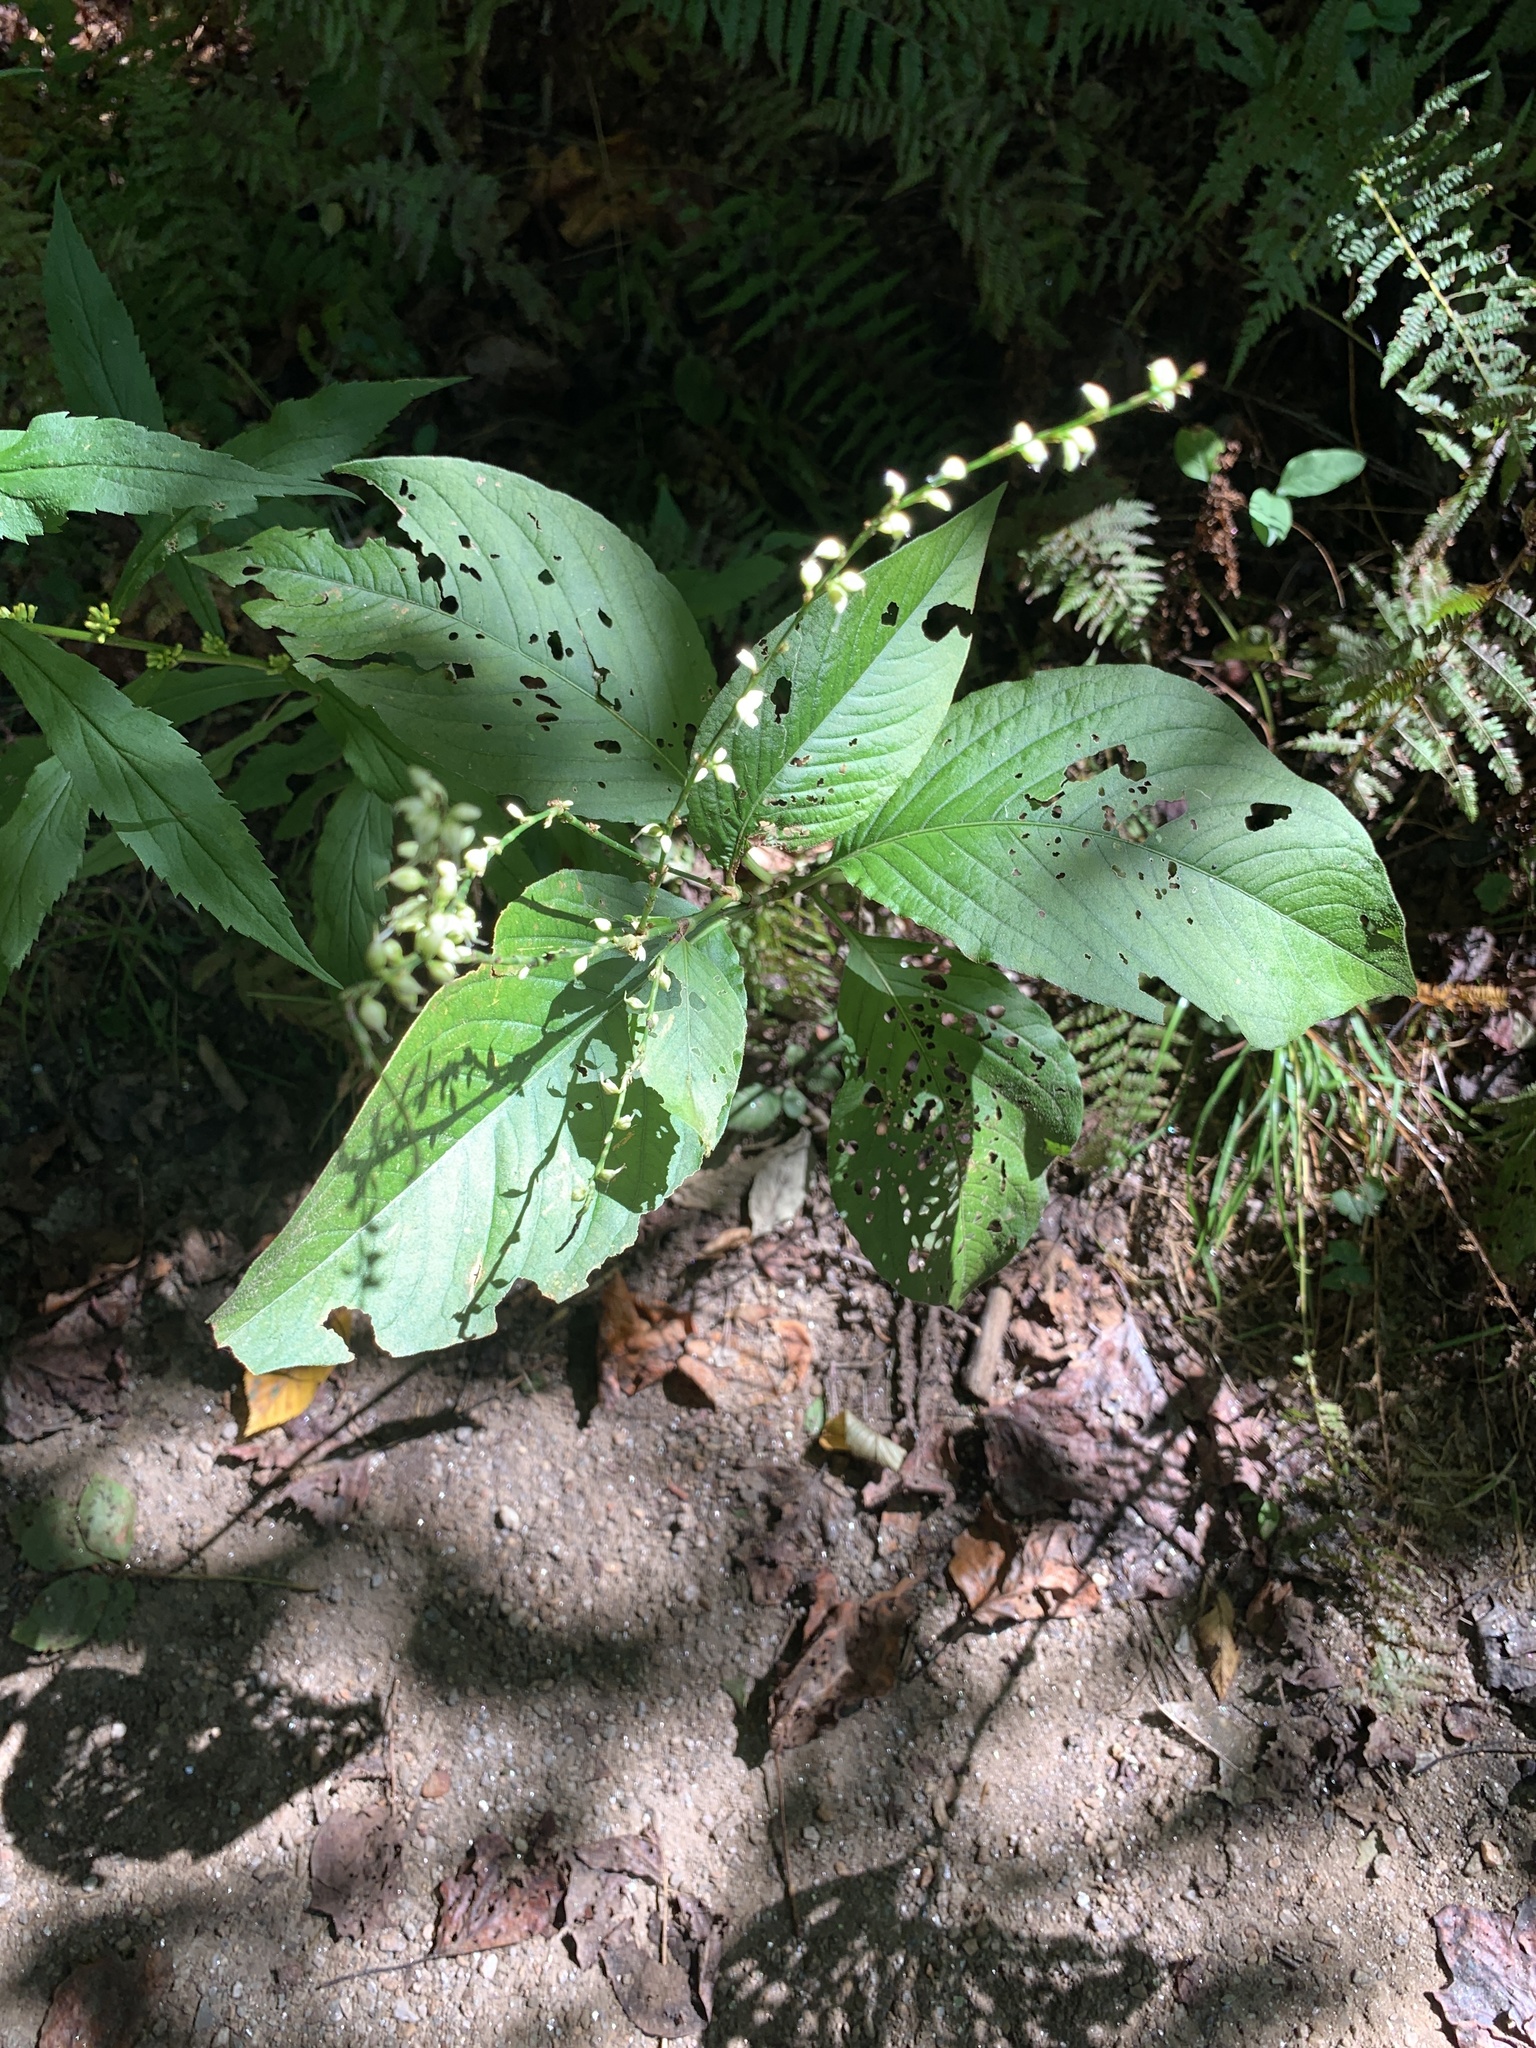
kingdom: Plantae
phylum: Tracheophyta
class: Magnoliopsida
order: Caryophyllales
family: Polygonaceae
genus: Persicaria
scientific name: Persicaria virginiana
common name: Jumpseed
